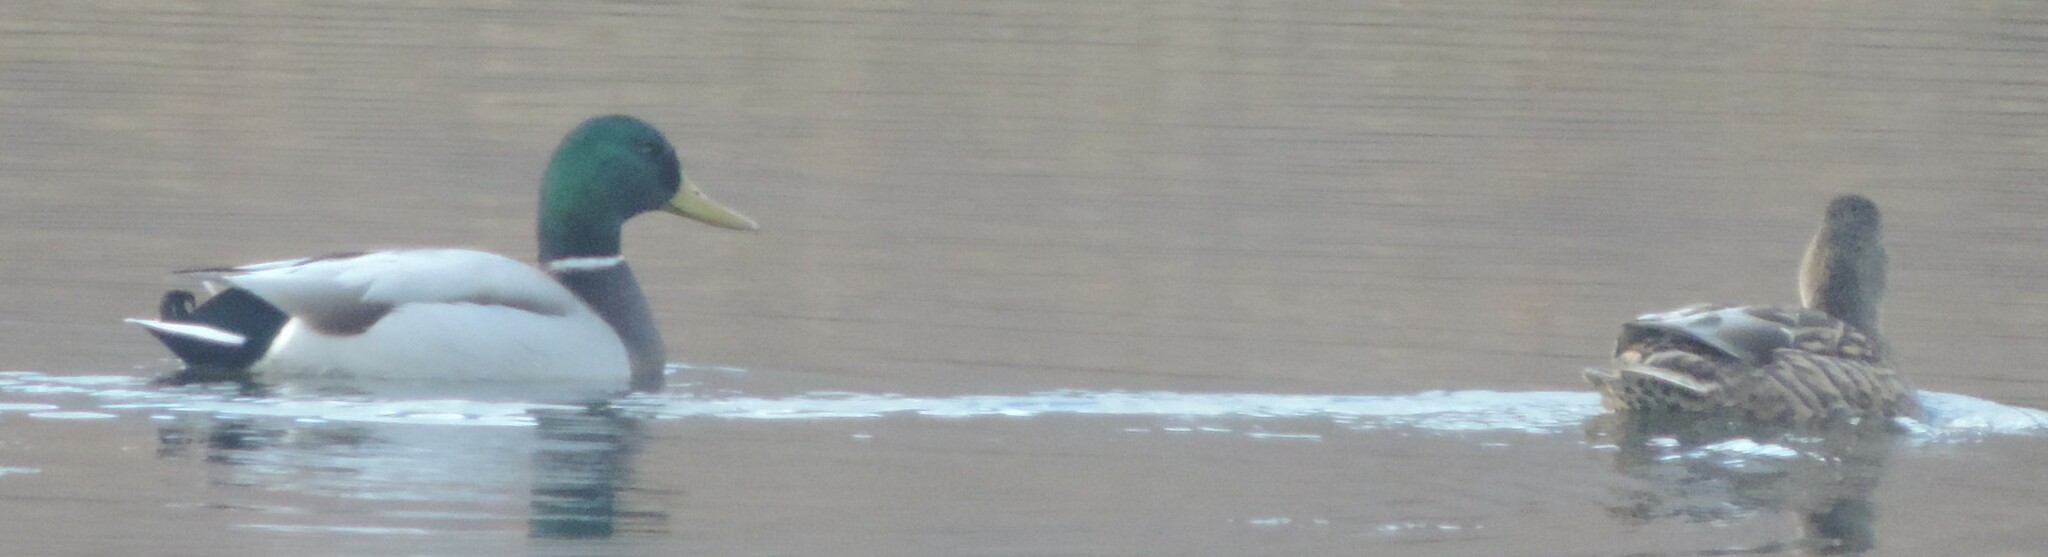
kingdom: Animalia
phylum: Chordata
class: Aves
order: Anseriformes
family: Anatidae
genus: Anas
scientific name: Anas platyrhynchos
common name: Mallard
